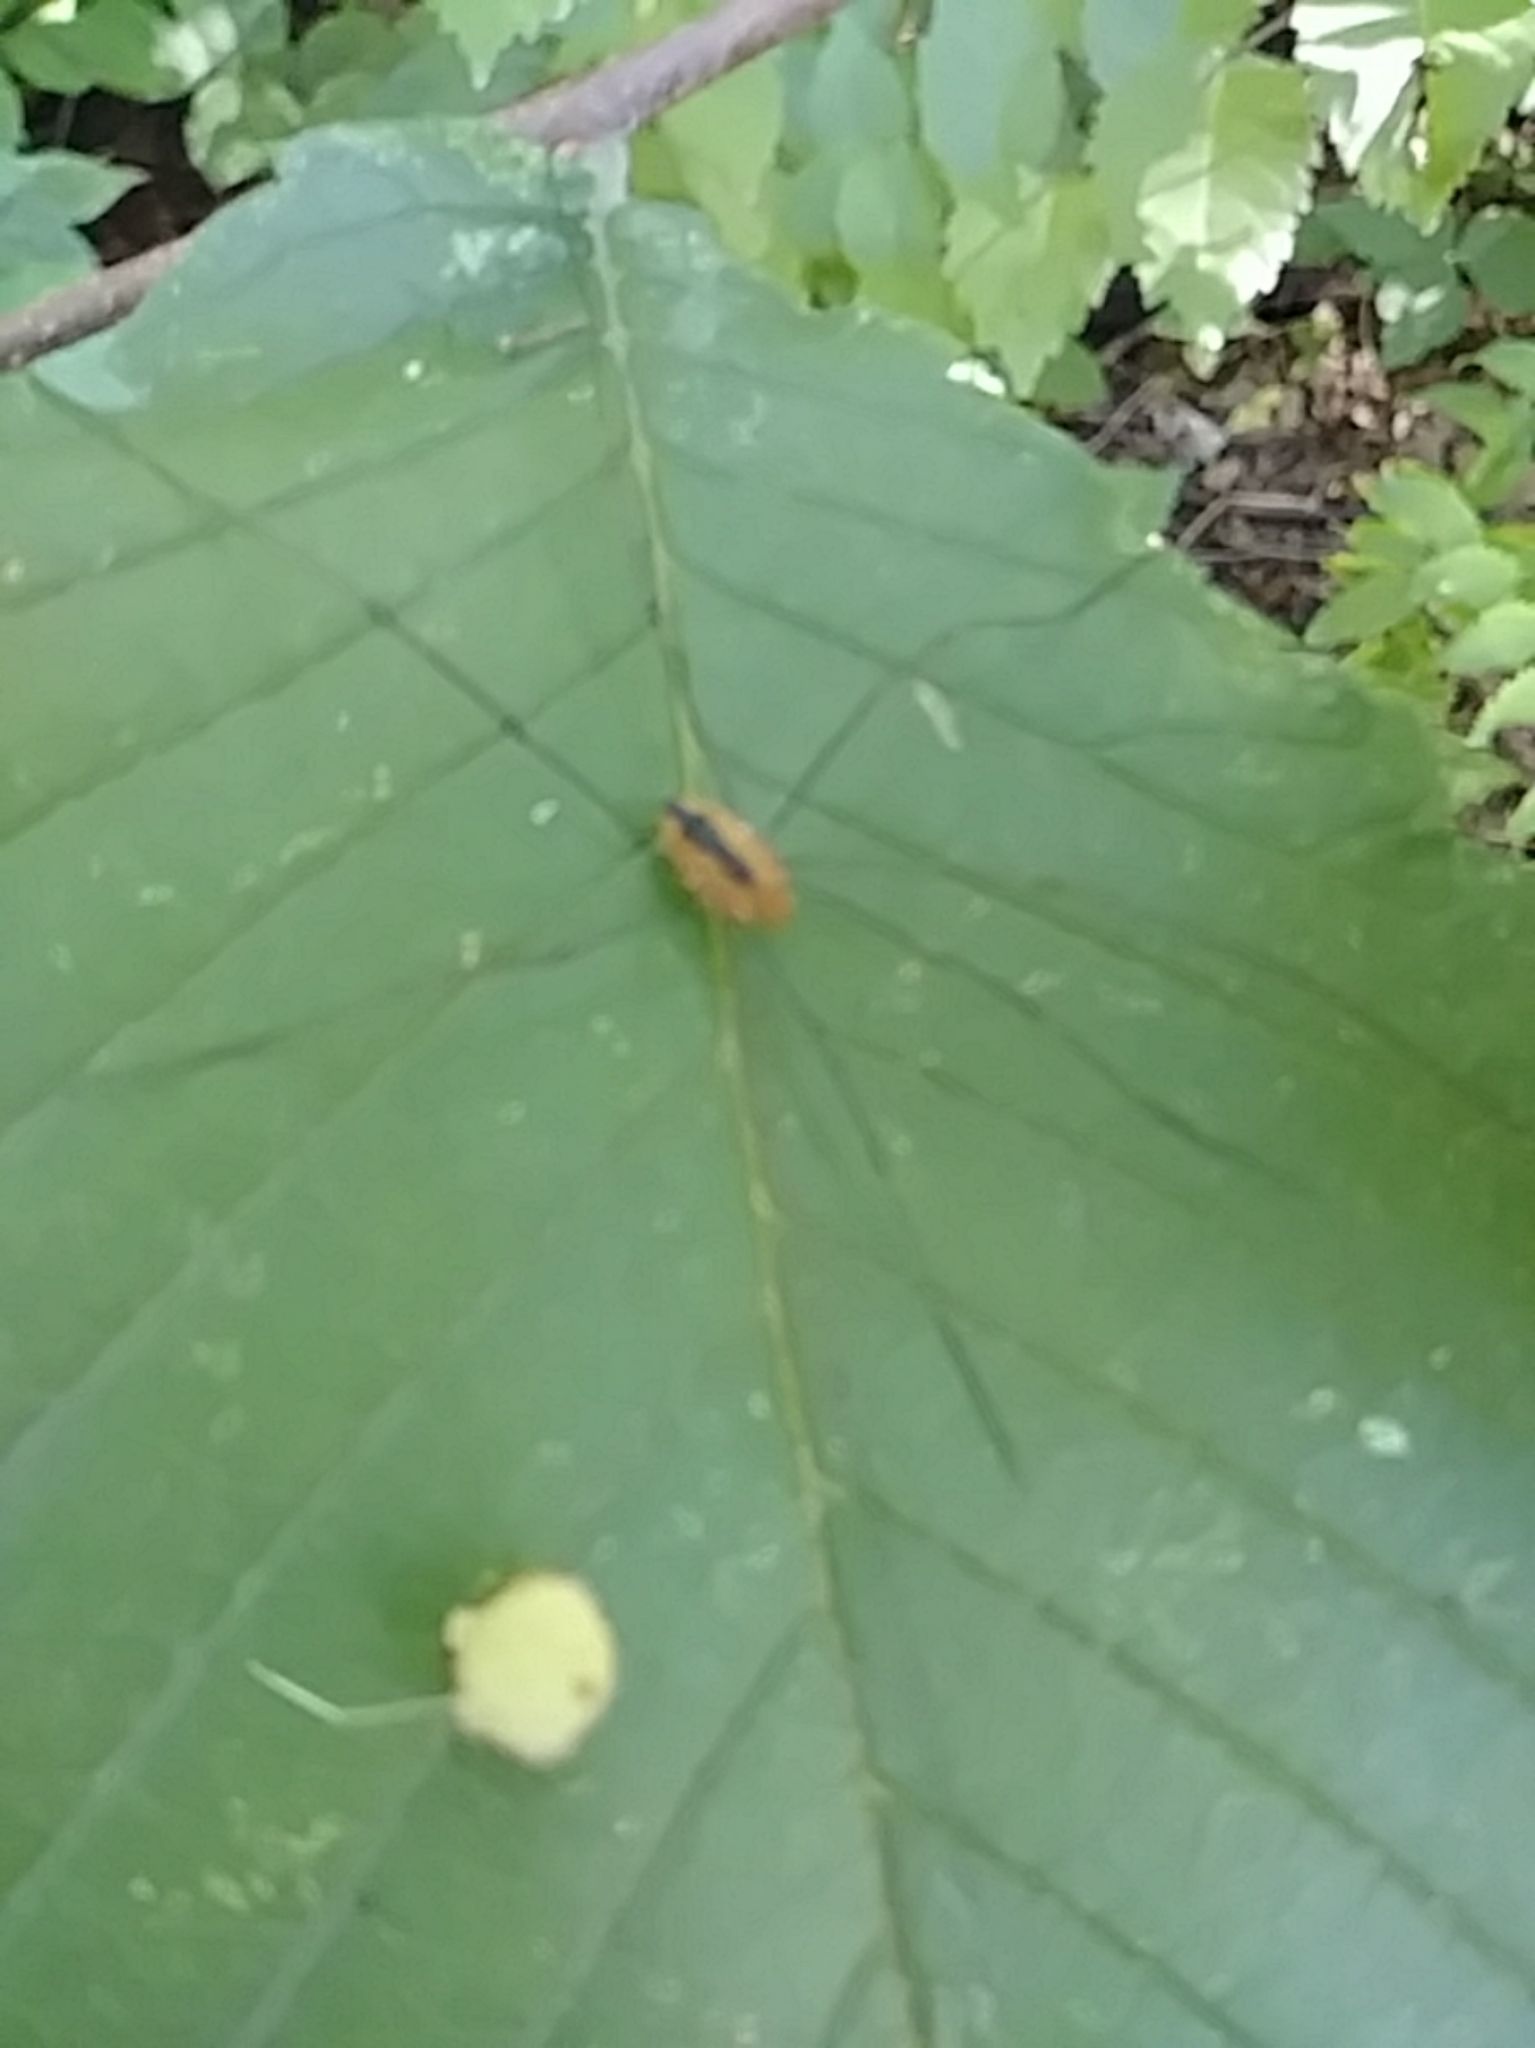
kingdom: Animalia
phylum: Arthropoda
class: Arachnida
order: Opiliones
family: Sclerosomatidae
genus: Leiobunum
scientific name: Leiobunum vittatum
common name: Eastern harvestman
